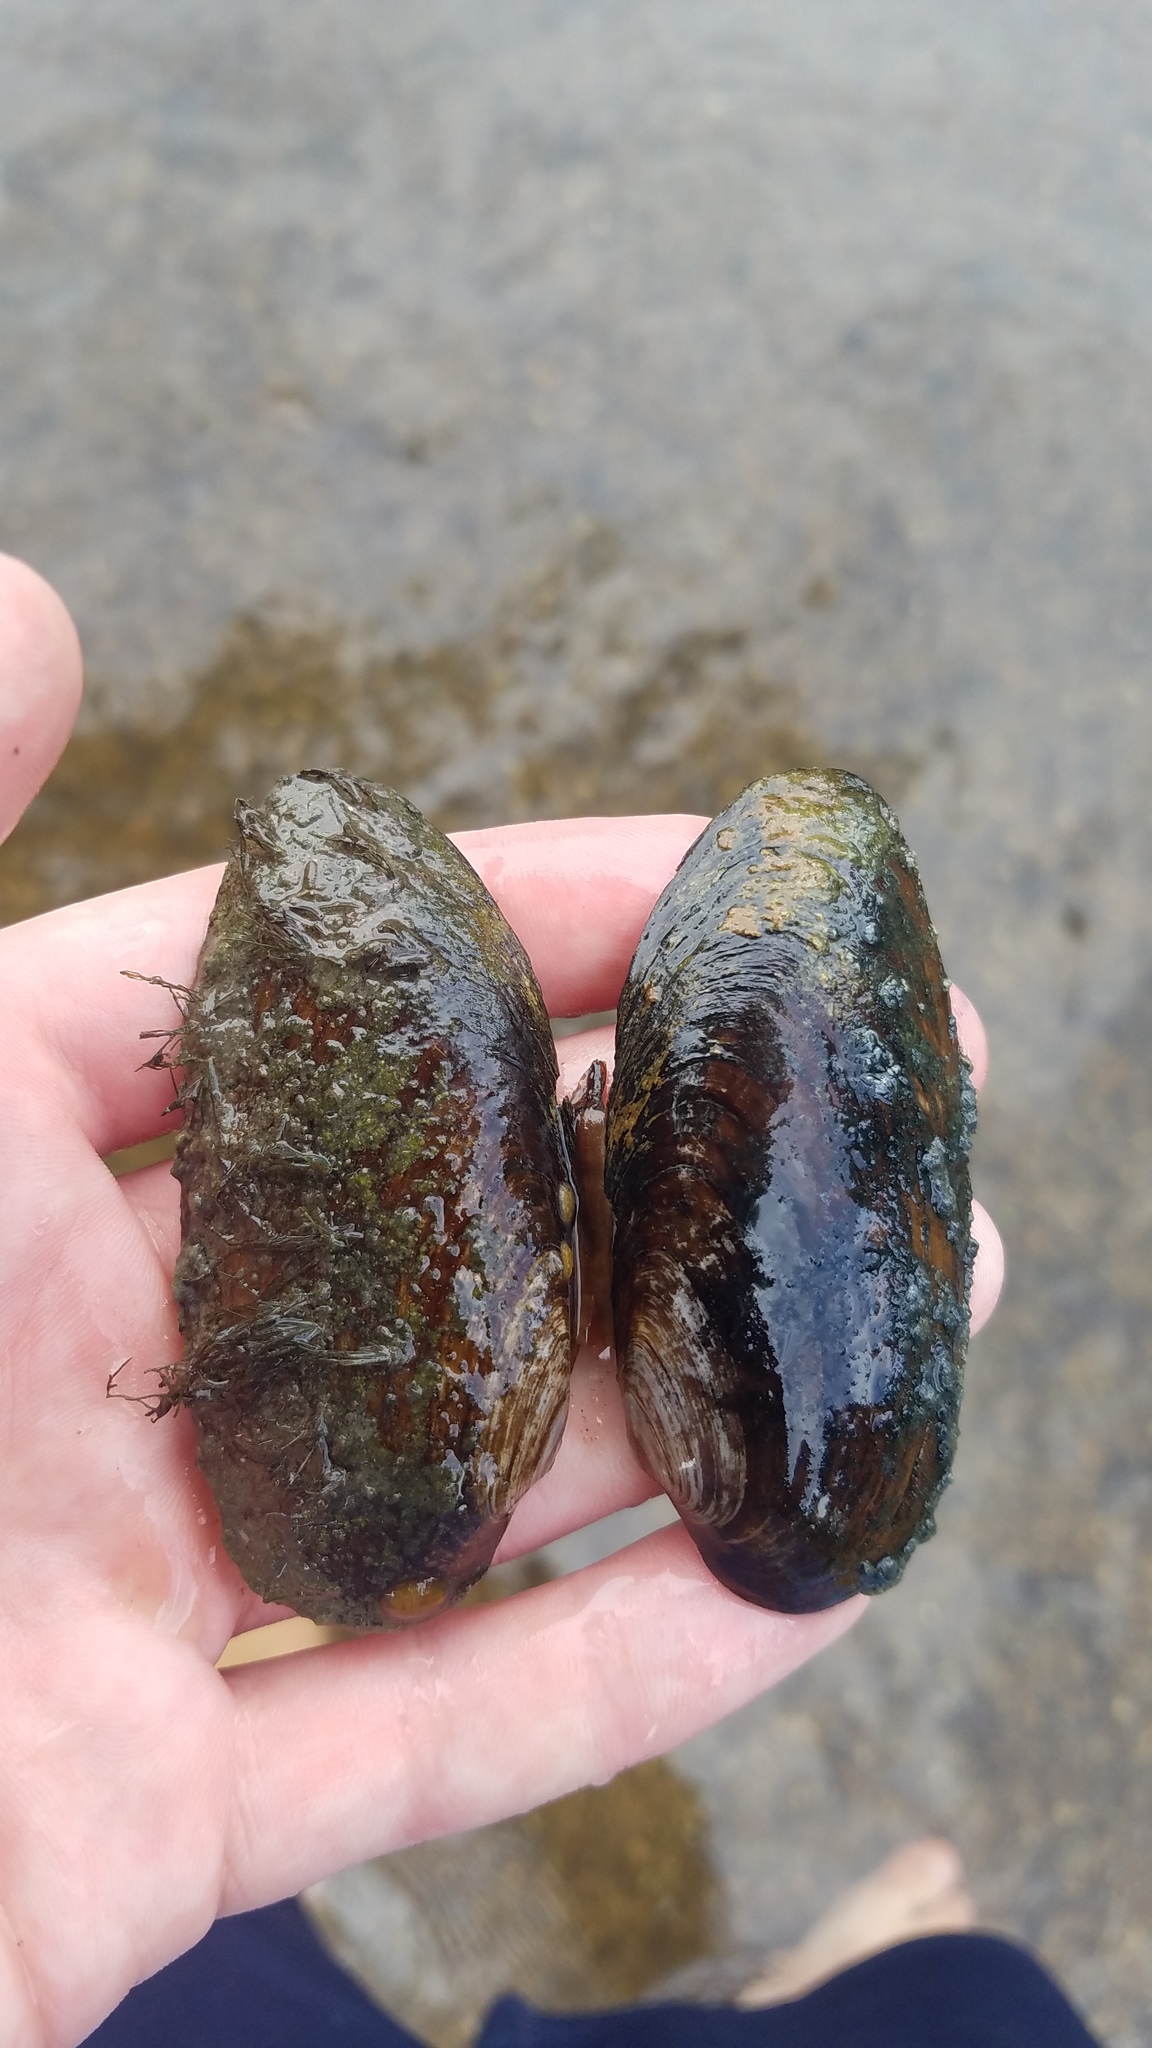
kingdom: Animalia
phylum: Mollusca
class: Bivalvia
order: Unionida
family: Unionidae
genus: Eurynia
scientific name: Eurynia dilatata
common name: Spike
